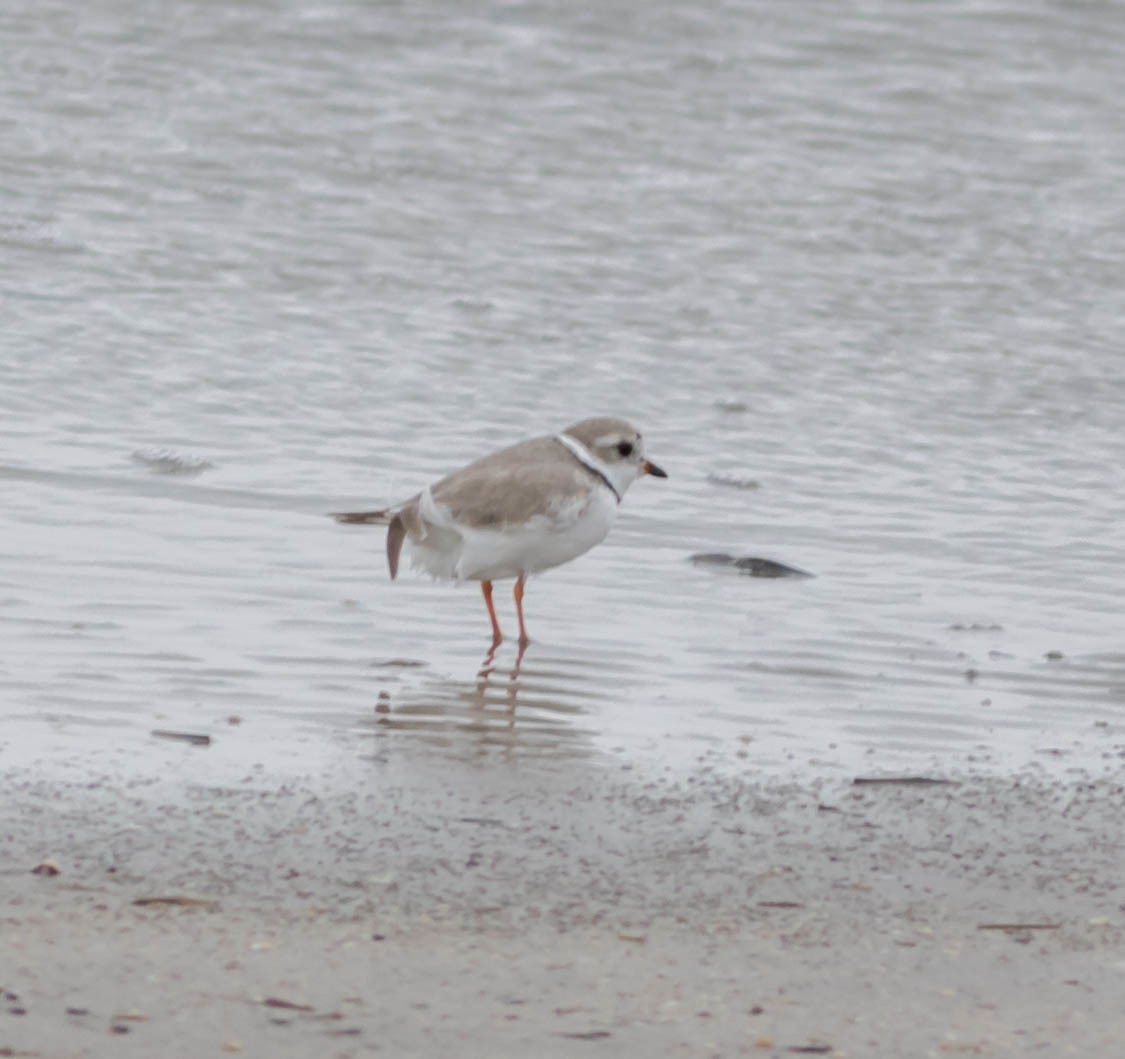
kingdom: Animalia
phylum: Chordata
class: Aves
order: Charadriiformes
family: Charadriidae
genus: Charadrius
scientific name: Charadrius melodus
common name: Piping plover
